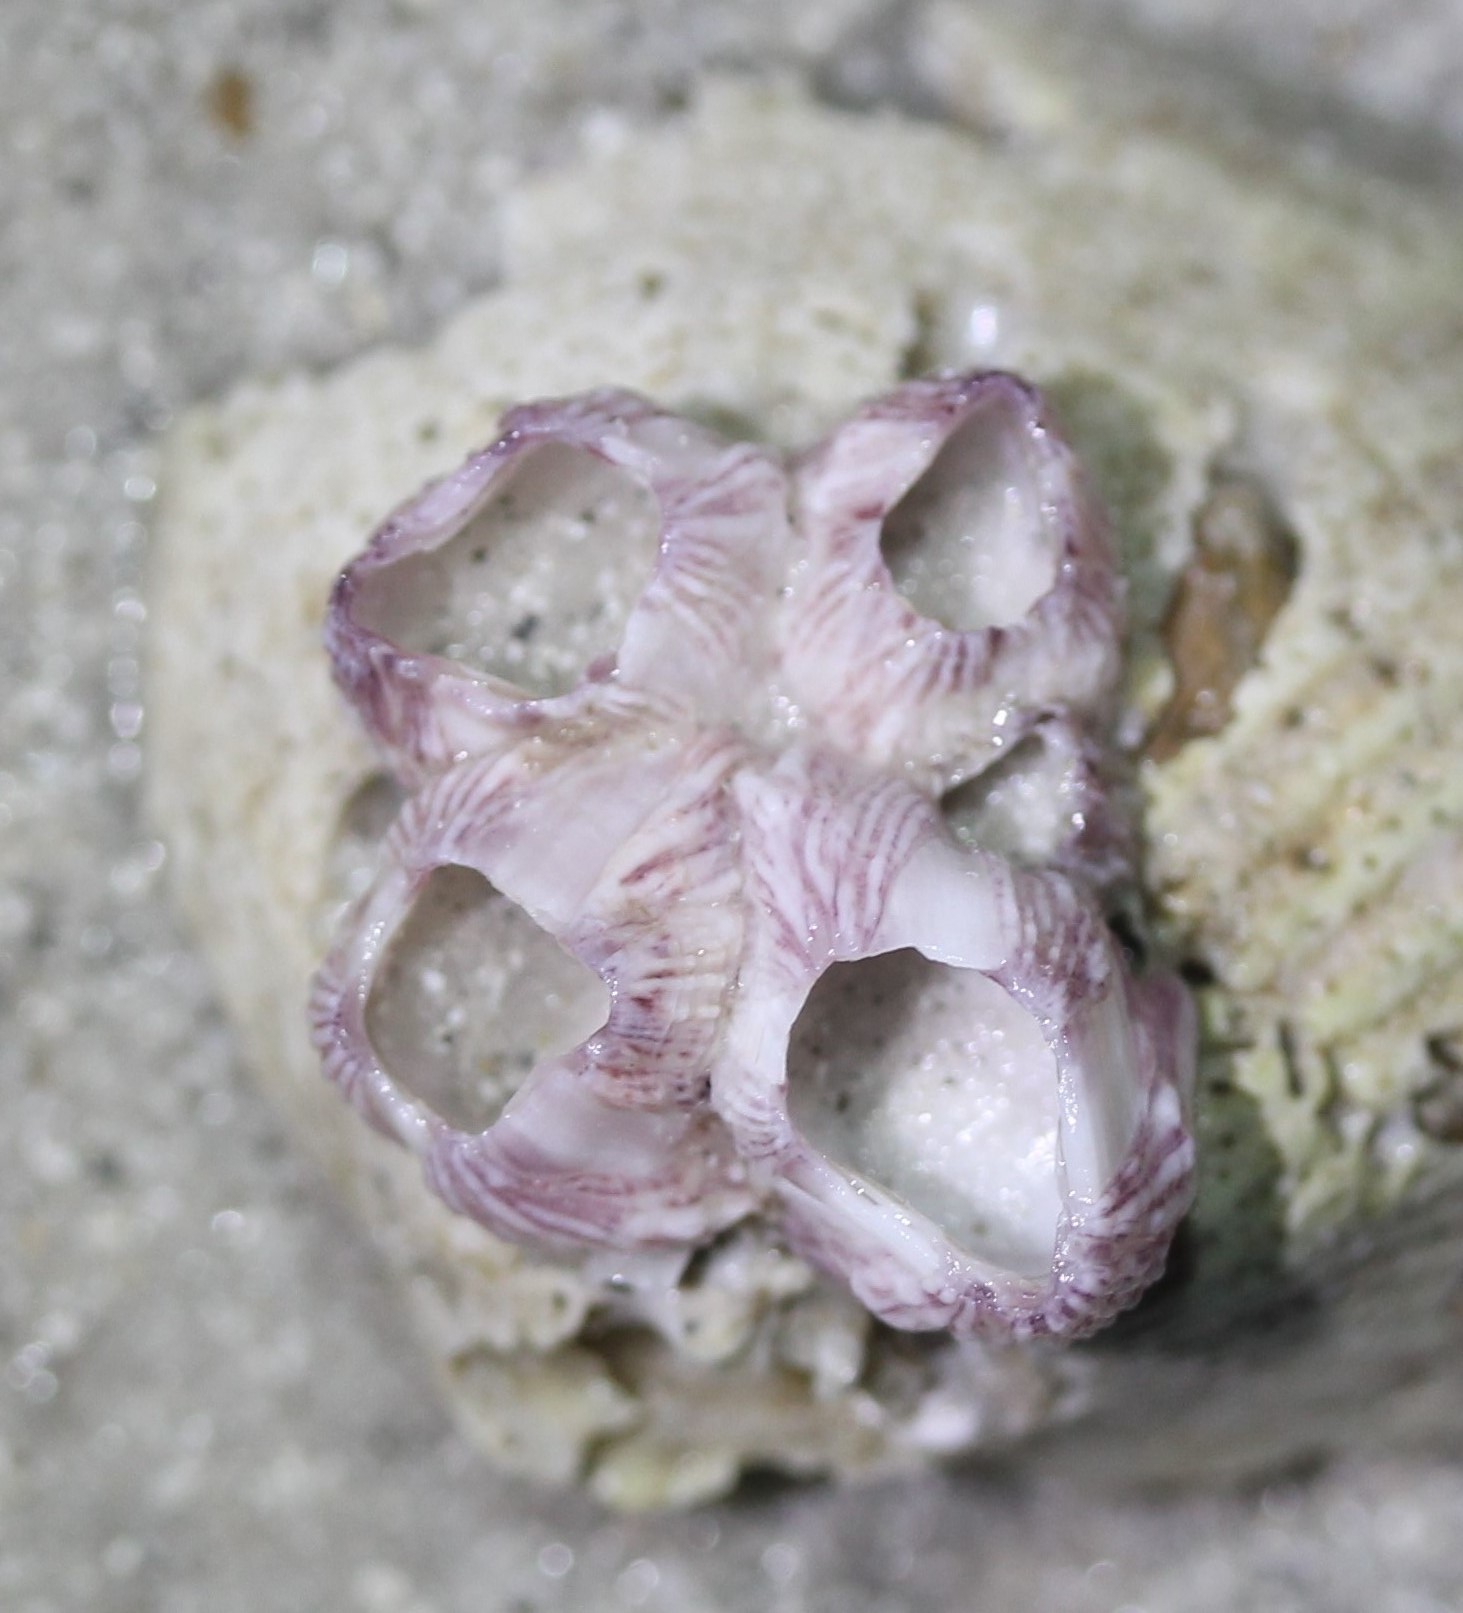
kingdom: Animalia
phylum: Arthropoda
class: Maxillopoda
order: Sessilia
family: Balanidae
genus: Balanus
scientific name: Balanus trigonus
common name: Triangle barnacle
